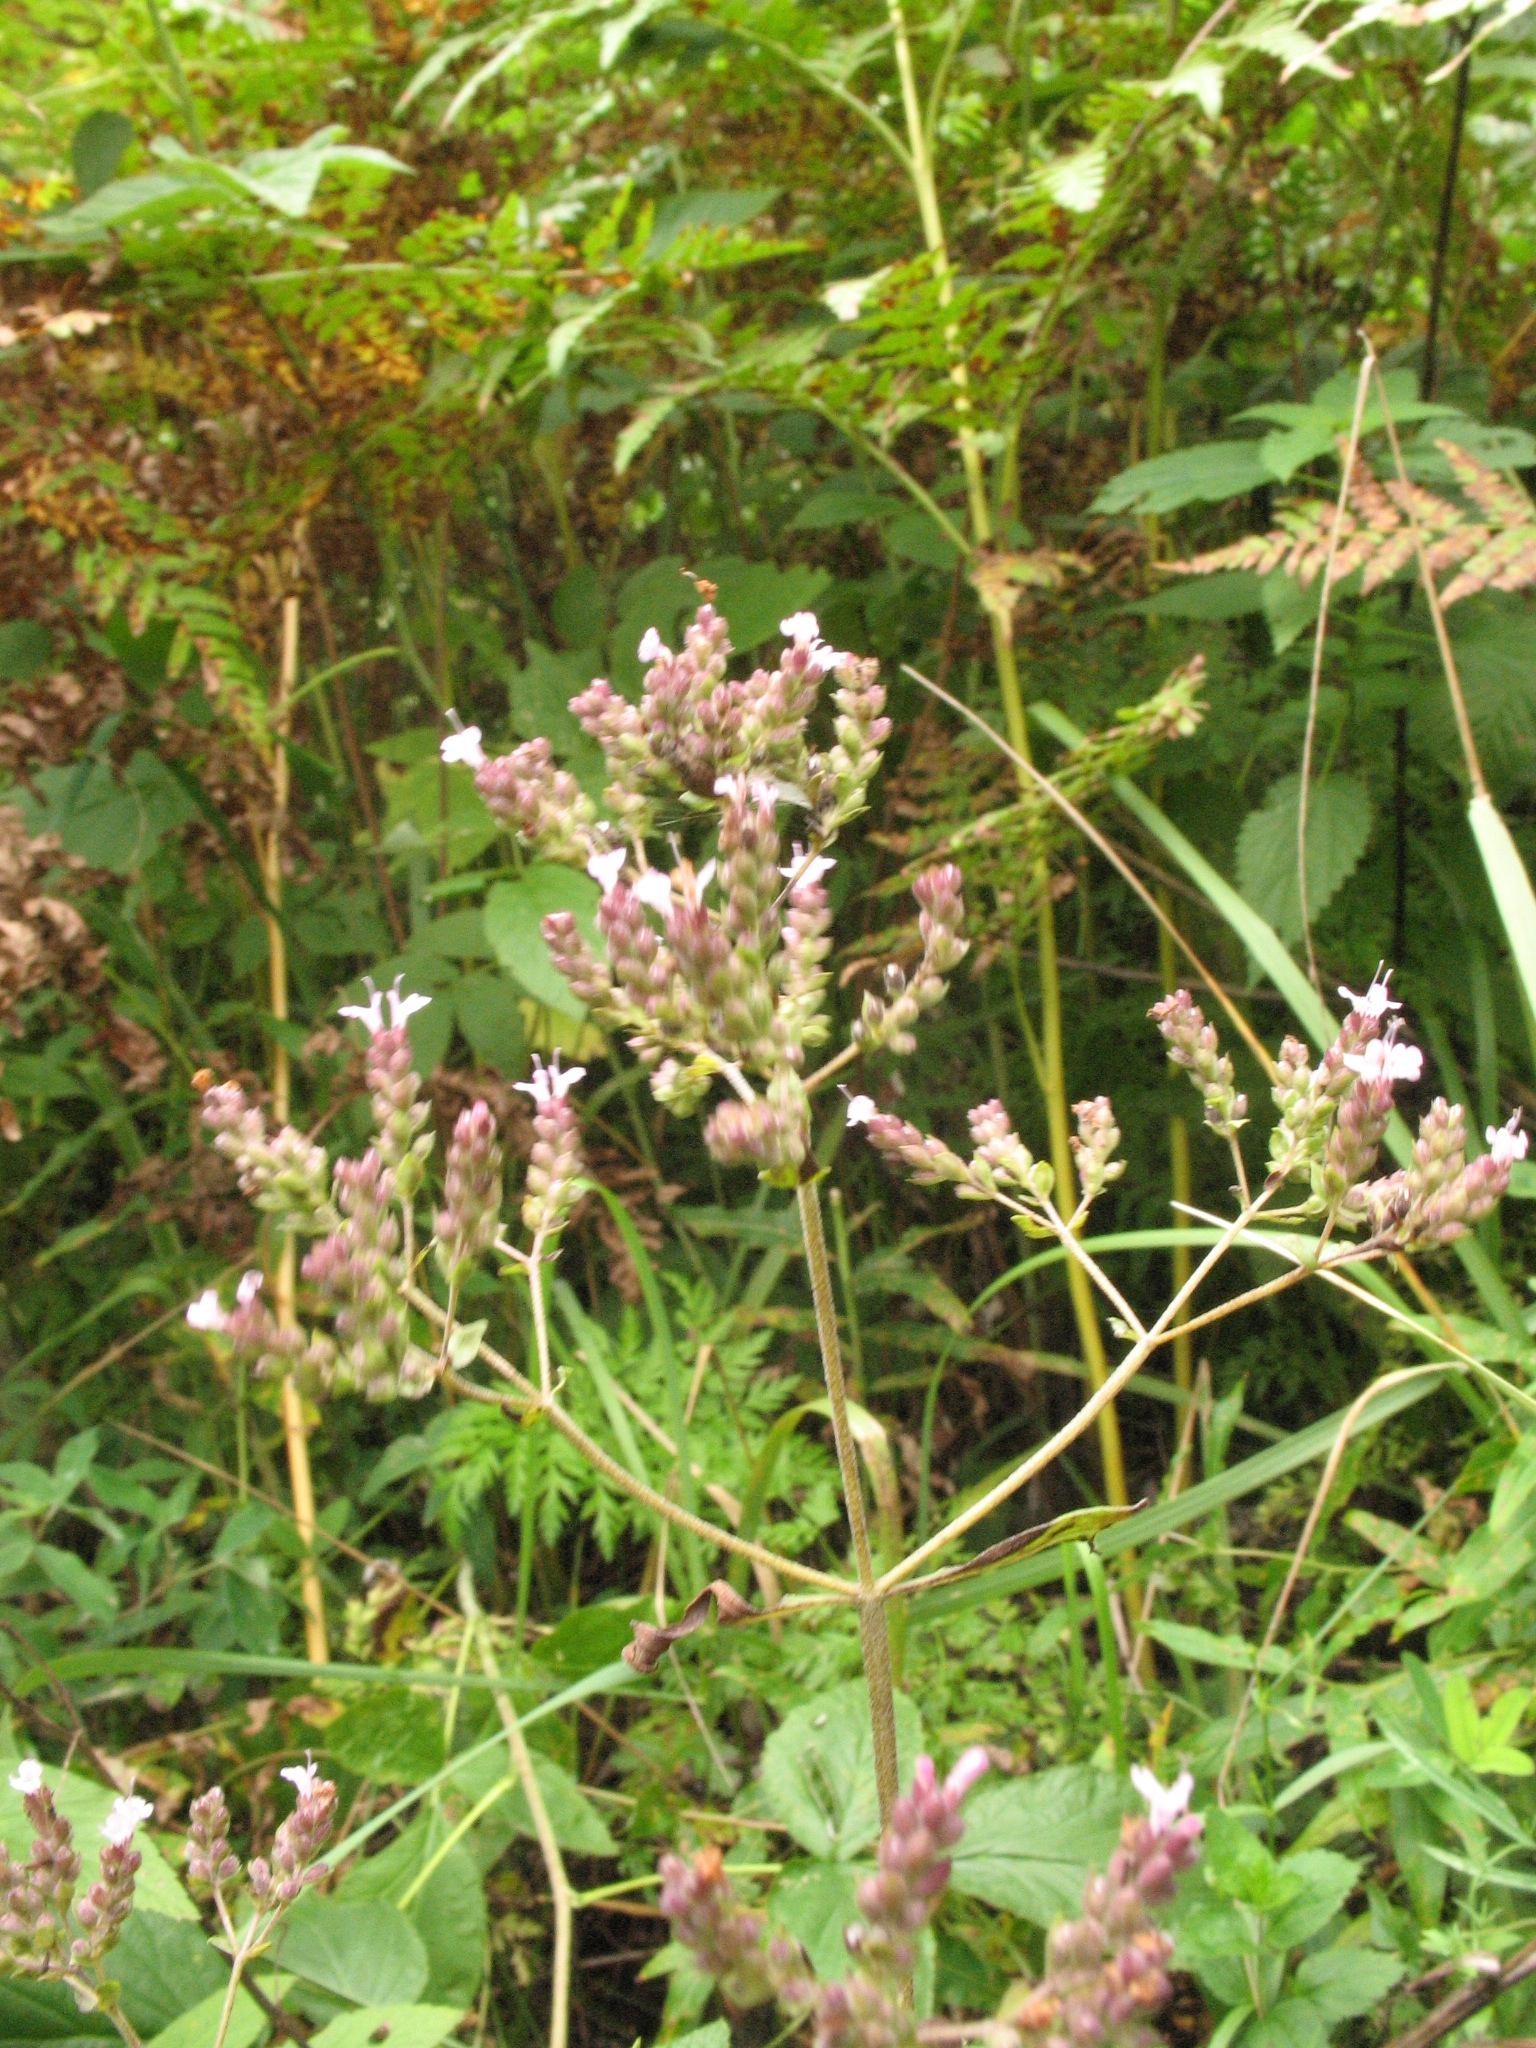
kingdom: Plantae
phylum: Tracheophyta
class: Magnoliopsida
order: Lamiales
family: Lamiaceae
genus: Origanum
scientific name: Origanum vulgare
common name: Wild marjoram
